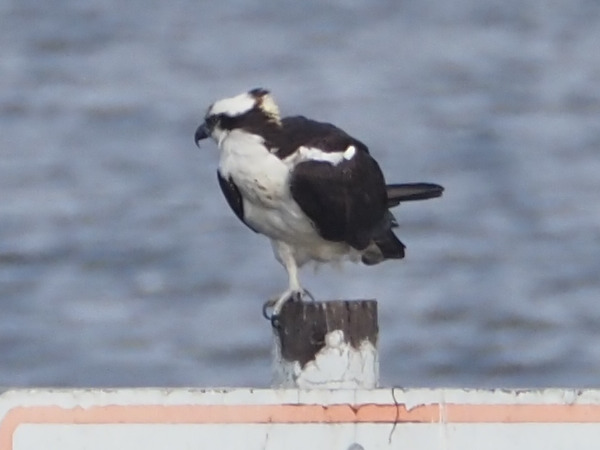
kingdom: Animalia
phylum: Chordata
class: Aves
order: Accipitriformes
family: Pandionidae
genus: Pandion
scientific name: Pandion haliaetus
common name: Osprey
